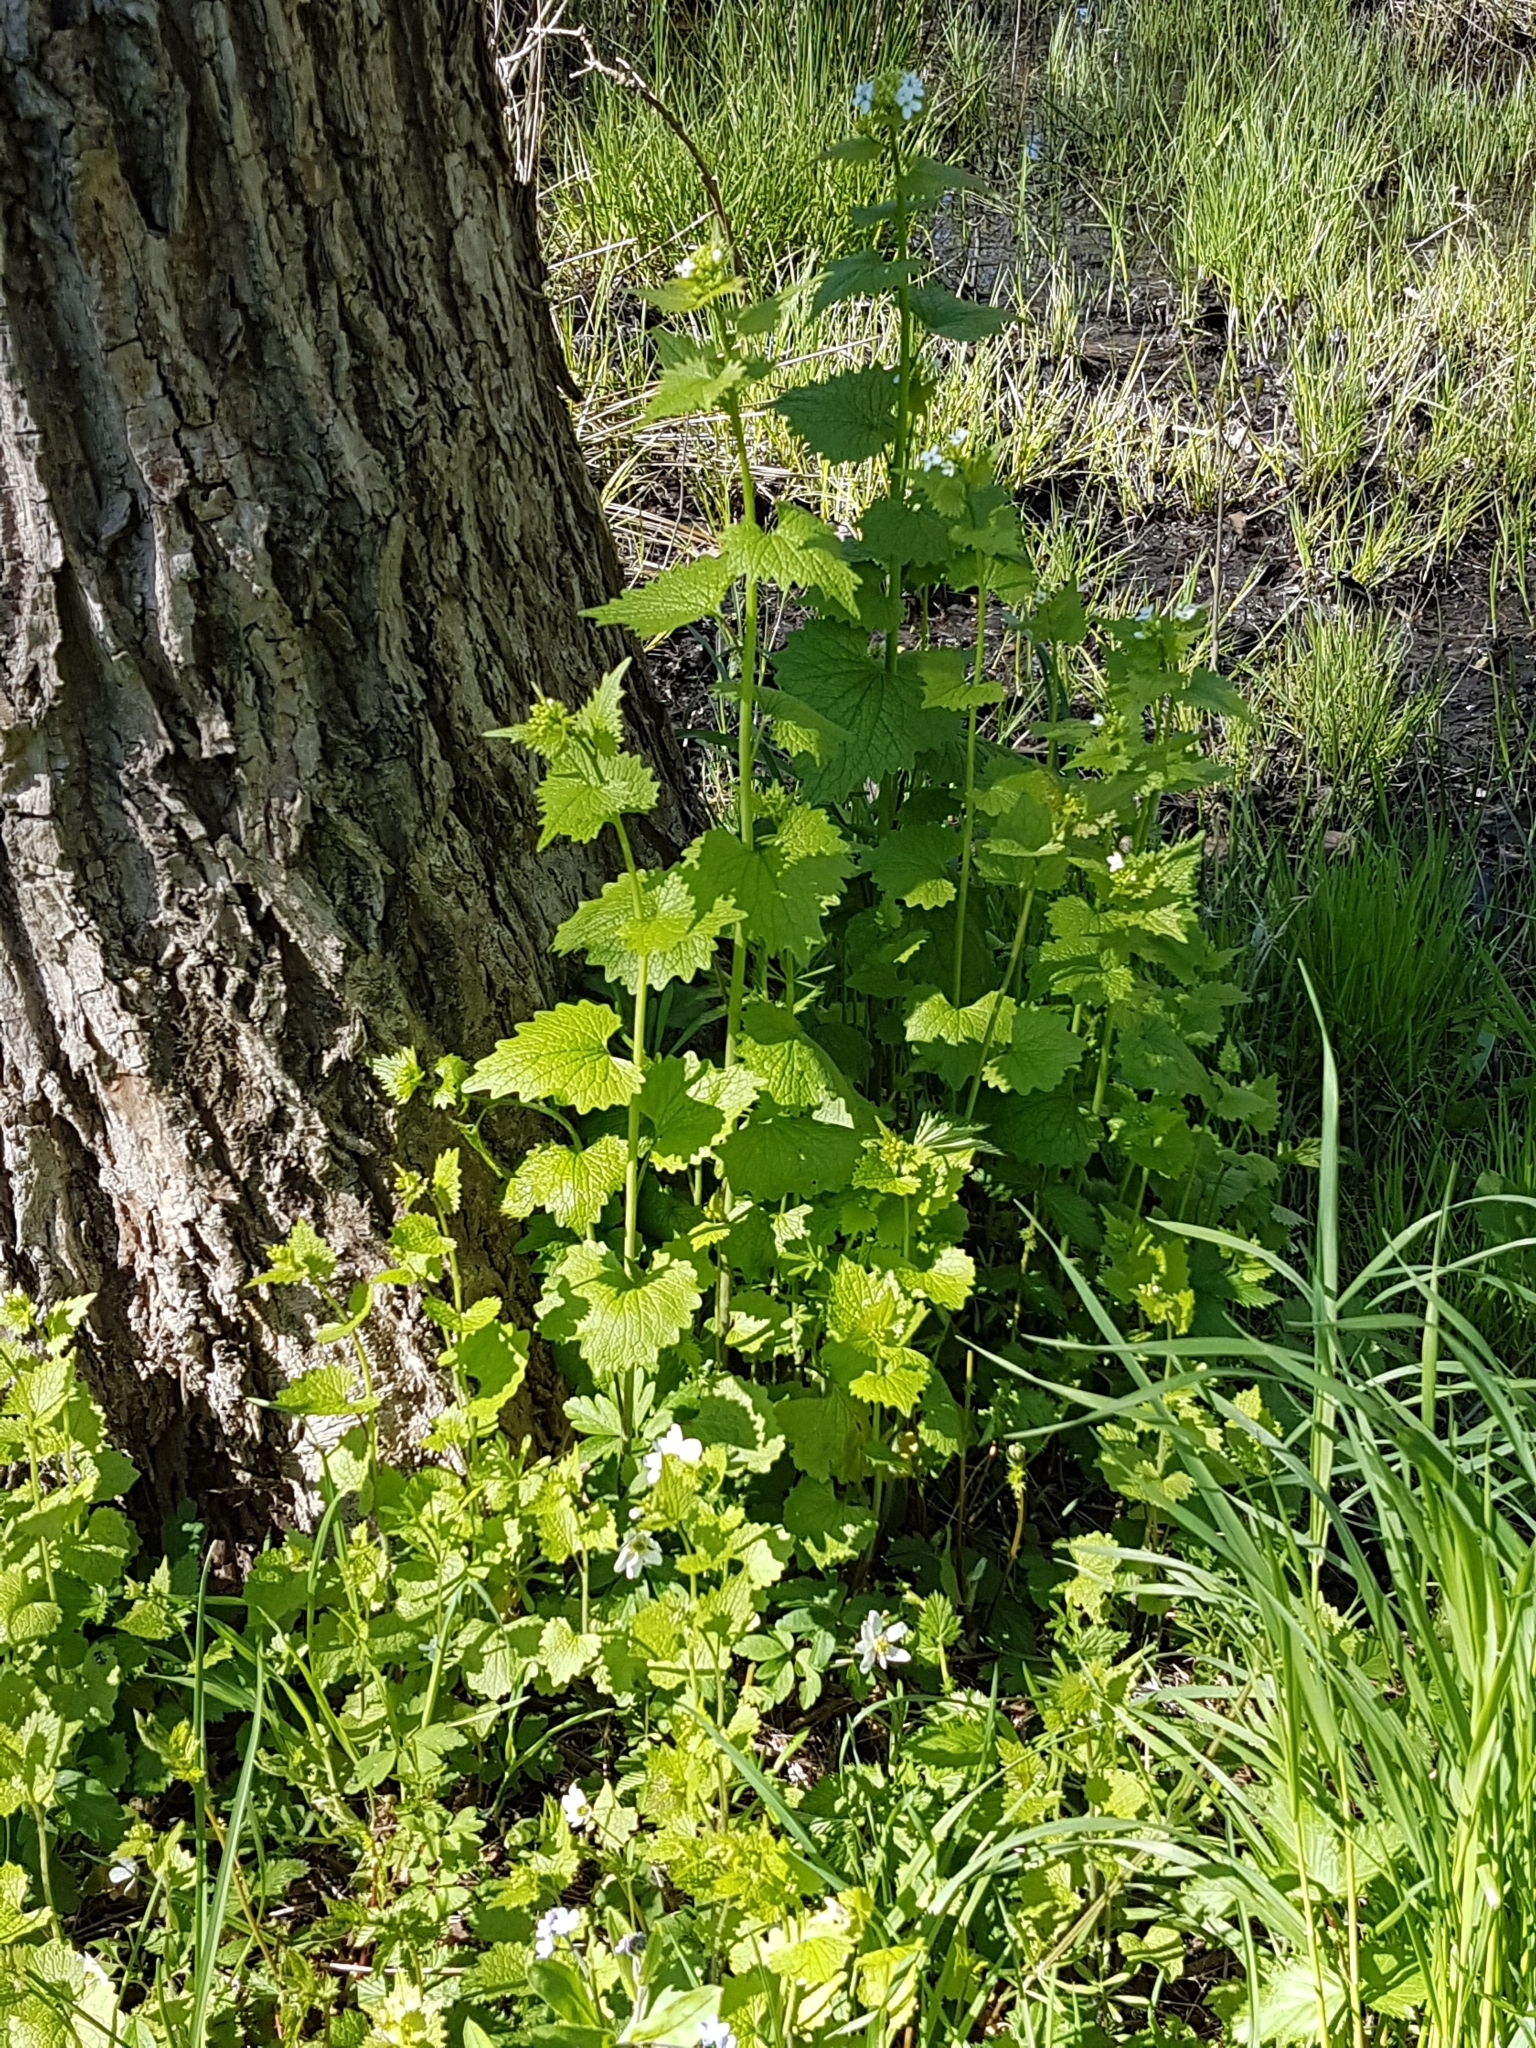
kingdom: Plantae
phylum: Tracheophyta
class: Magnoliopsida
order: Brassicales
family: Brassicaceae
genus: Alliaria
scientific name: Alliaria petiolata
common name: Garlic mustard
